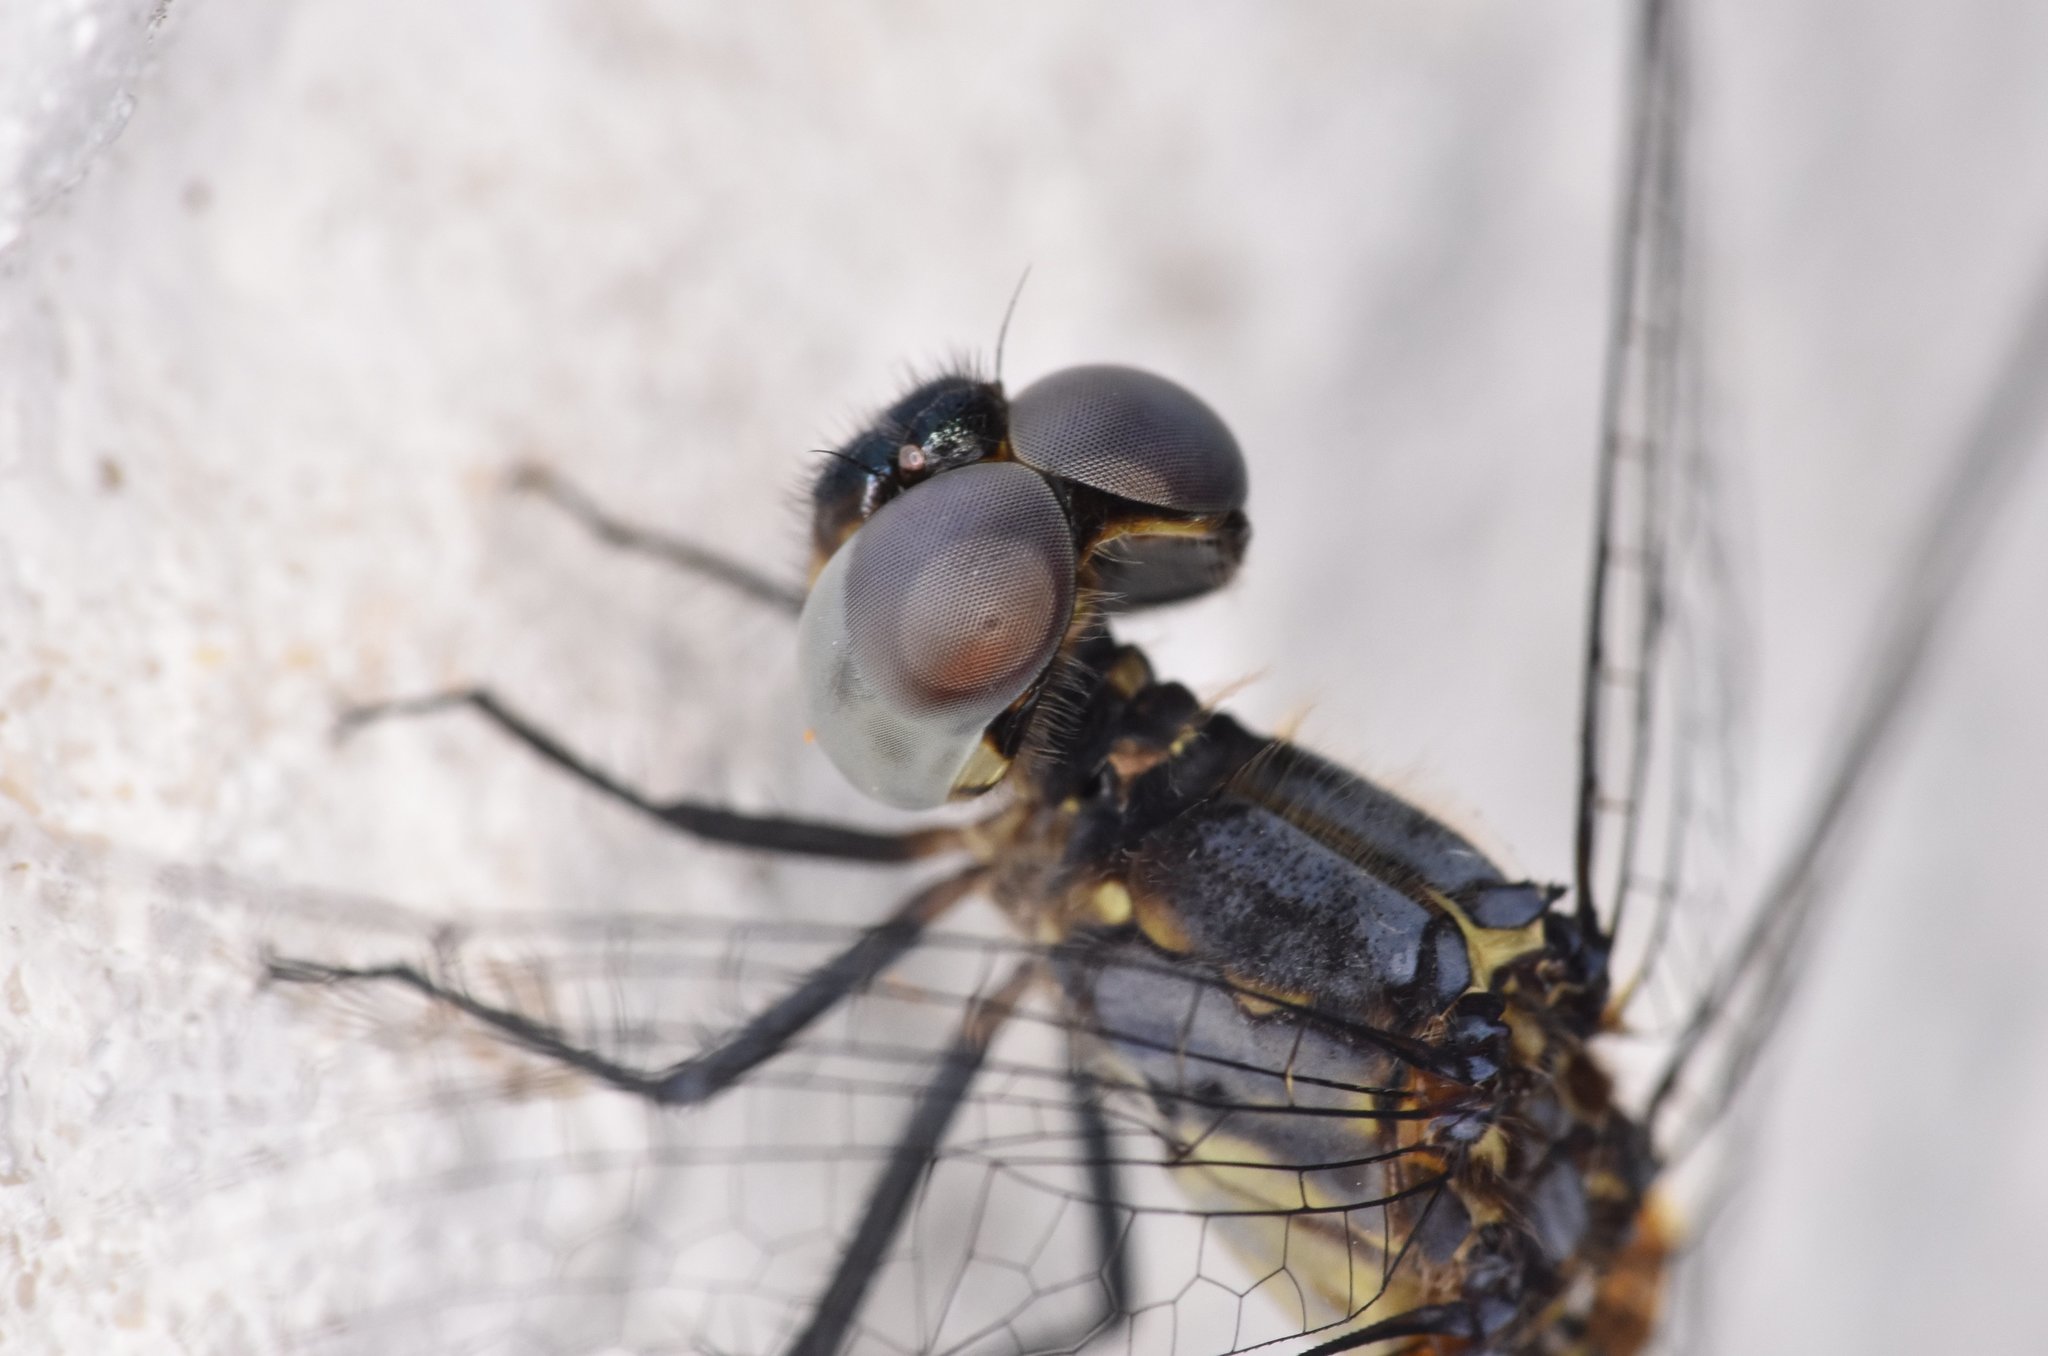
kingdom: Animalia
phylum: Arthropoda
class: Insecta
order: Odonata
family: Libellulidae
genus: Erythrodiplax
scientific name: Erythrodiplax minuscula
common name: Little blue dragonlet
